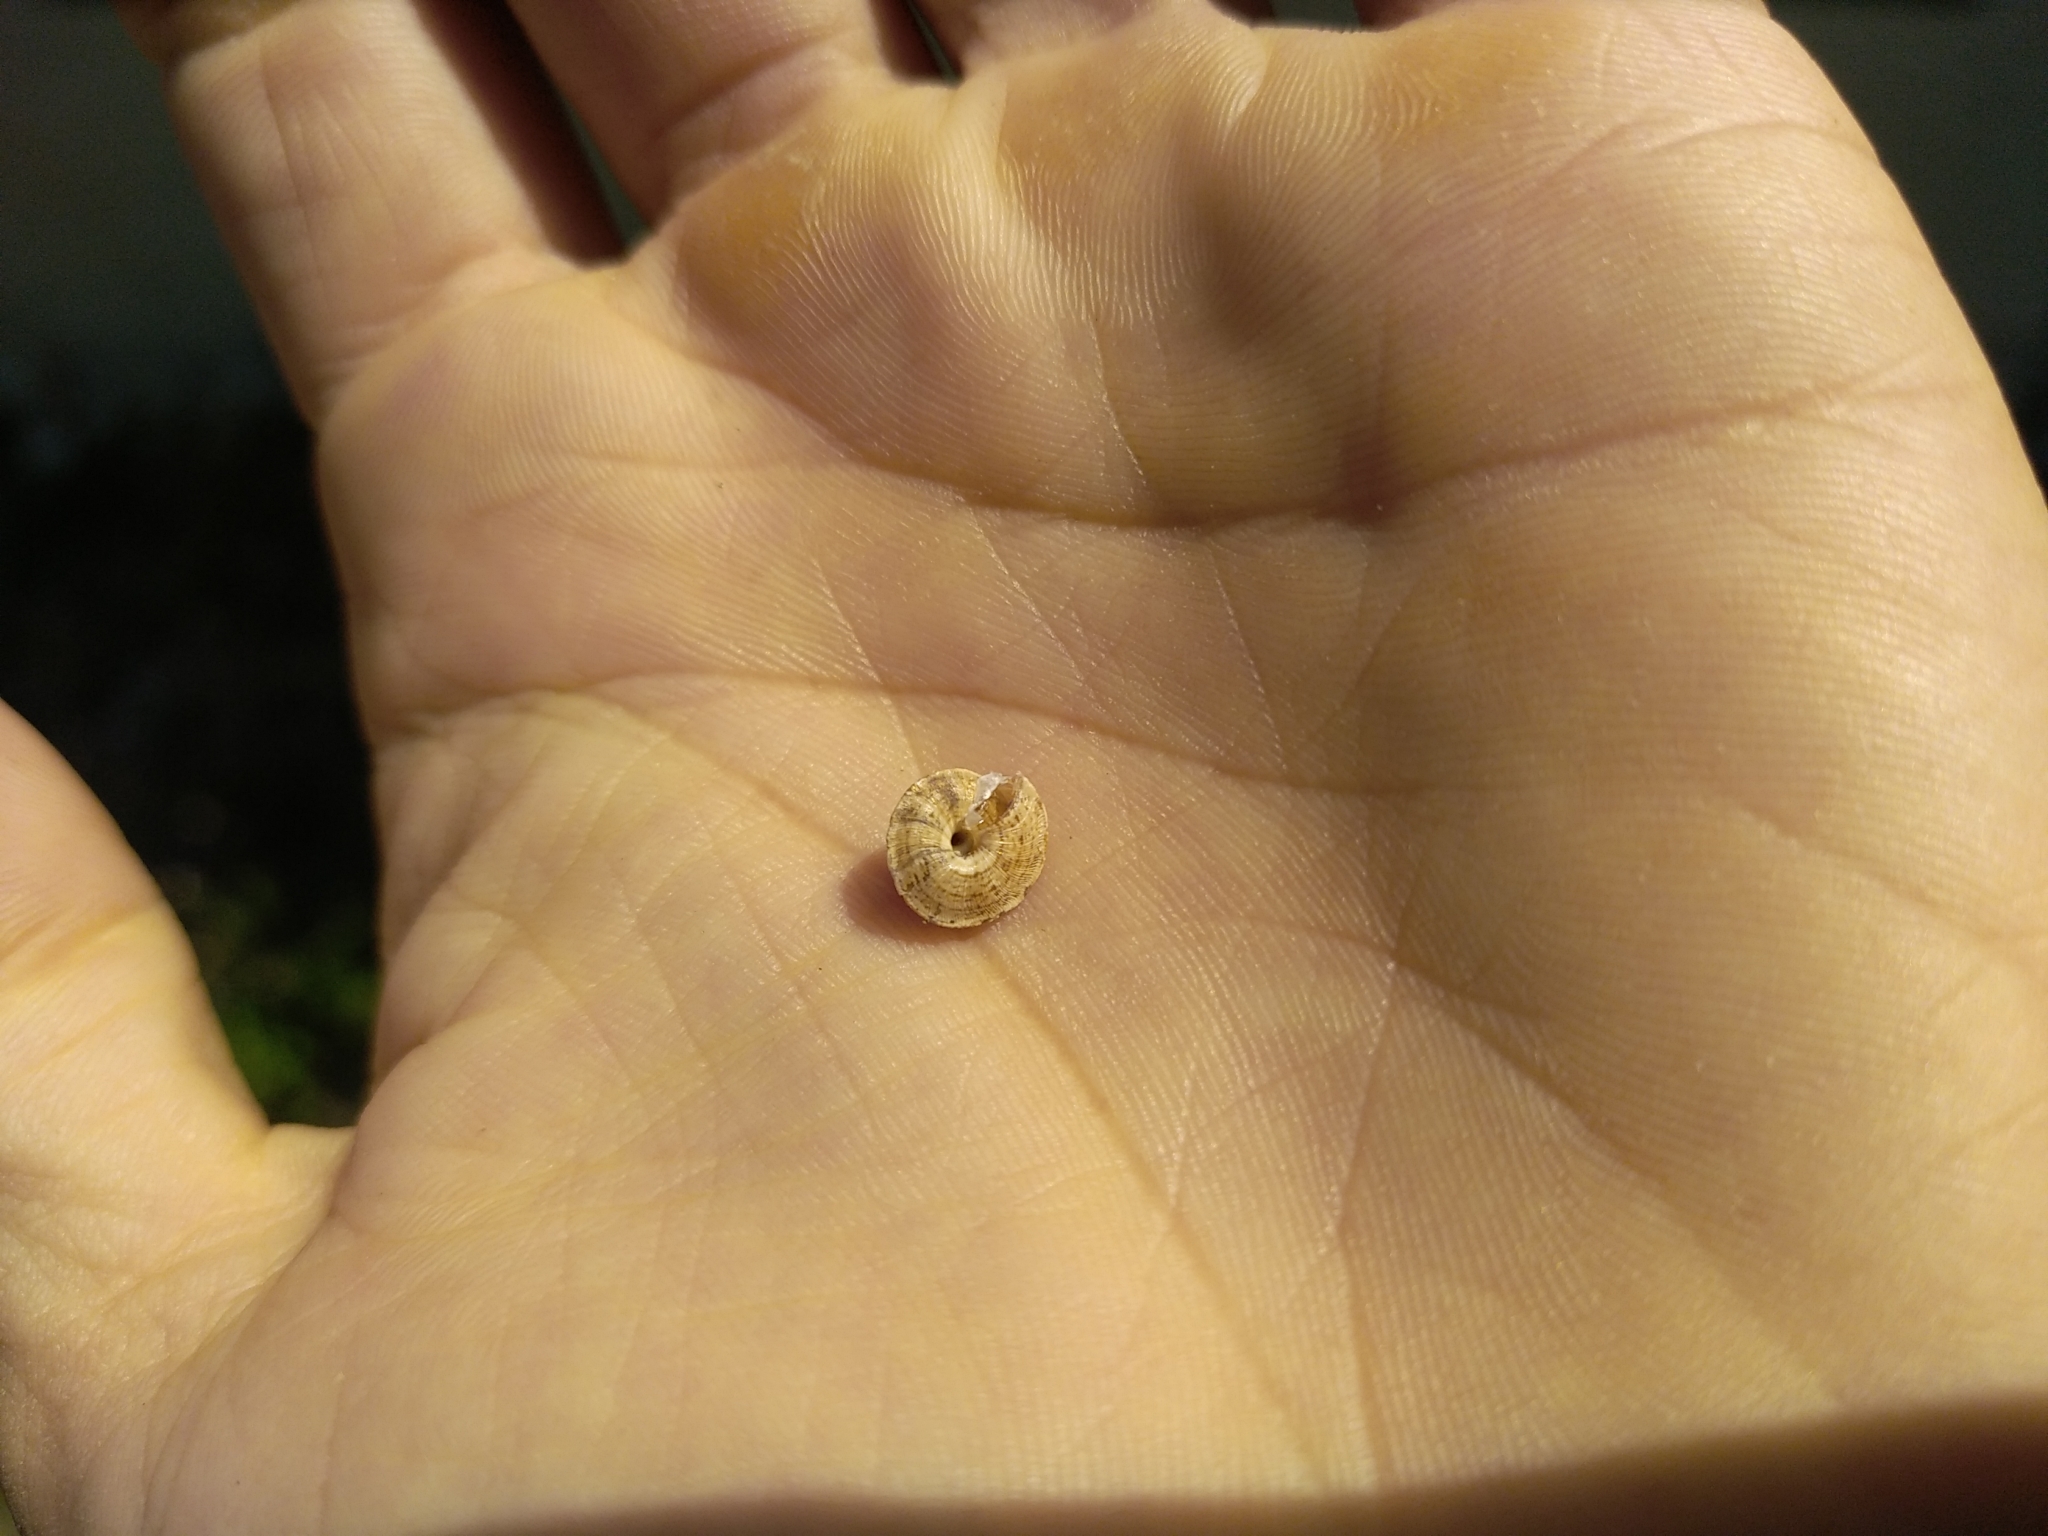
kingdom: Animalia
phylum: Mollusca
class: Gastropoda
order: Stylommatophora
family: Geomitridae
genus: Trochoidea
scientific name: Trochoidea elegans
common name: Elegant helicellid
